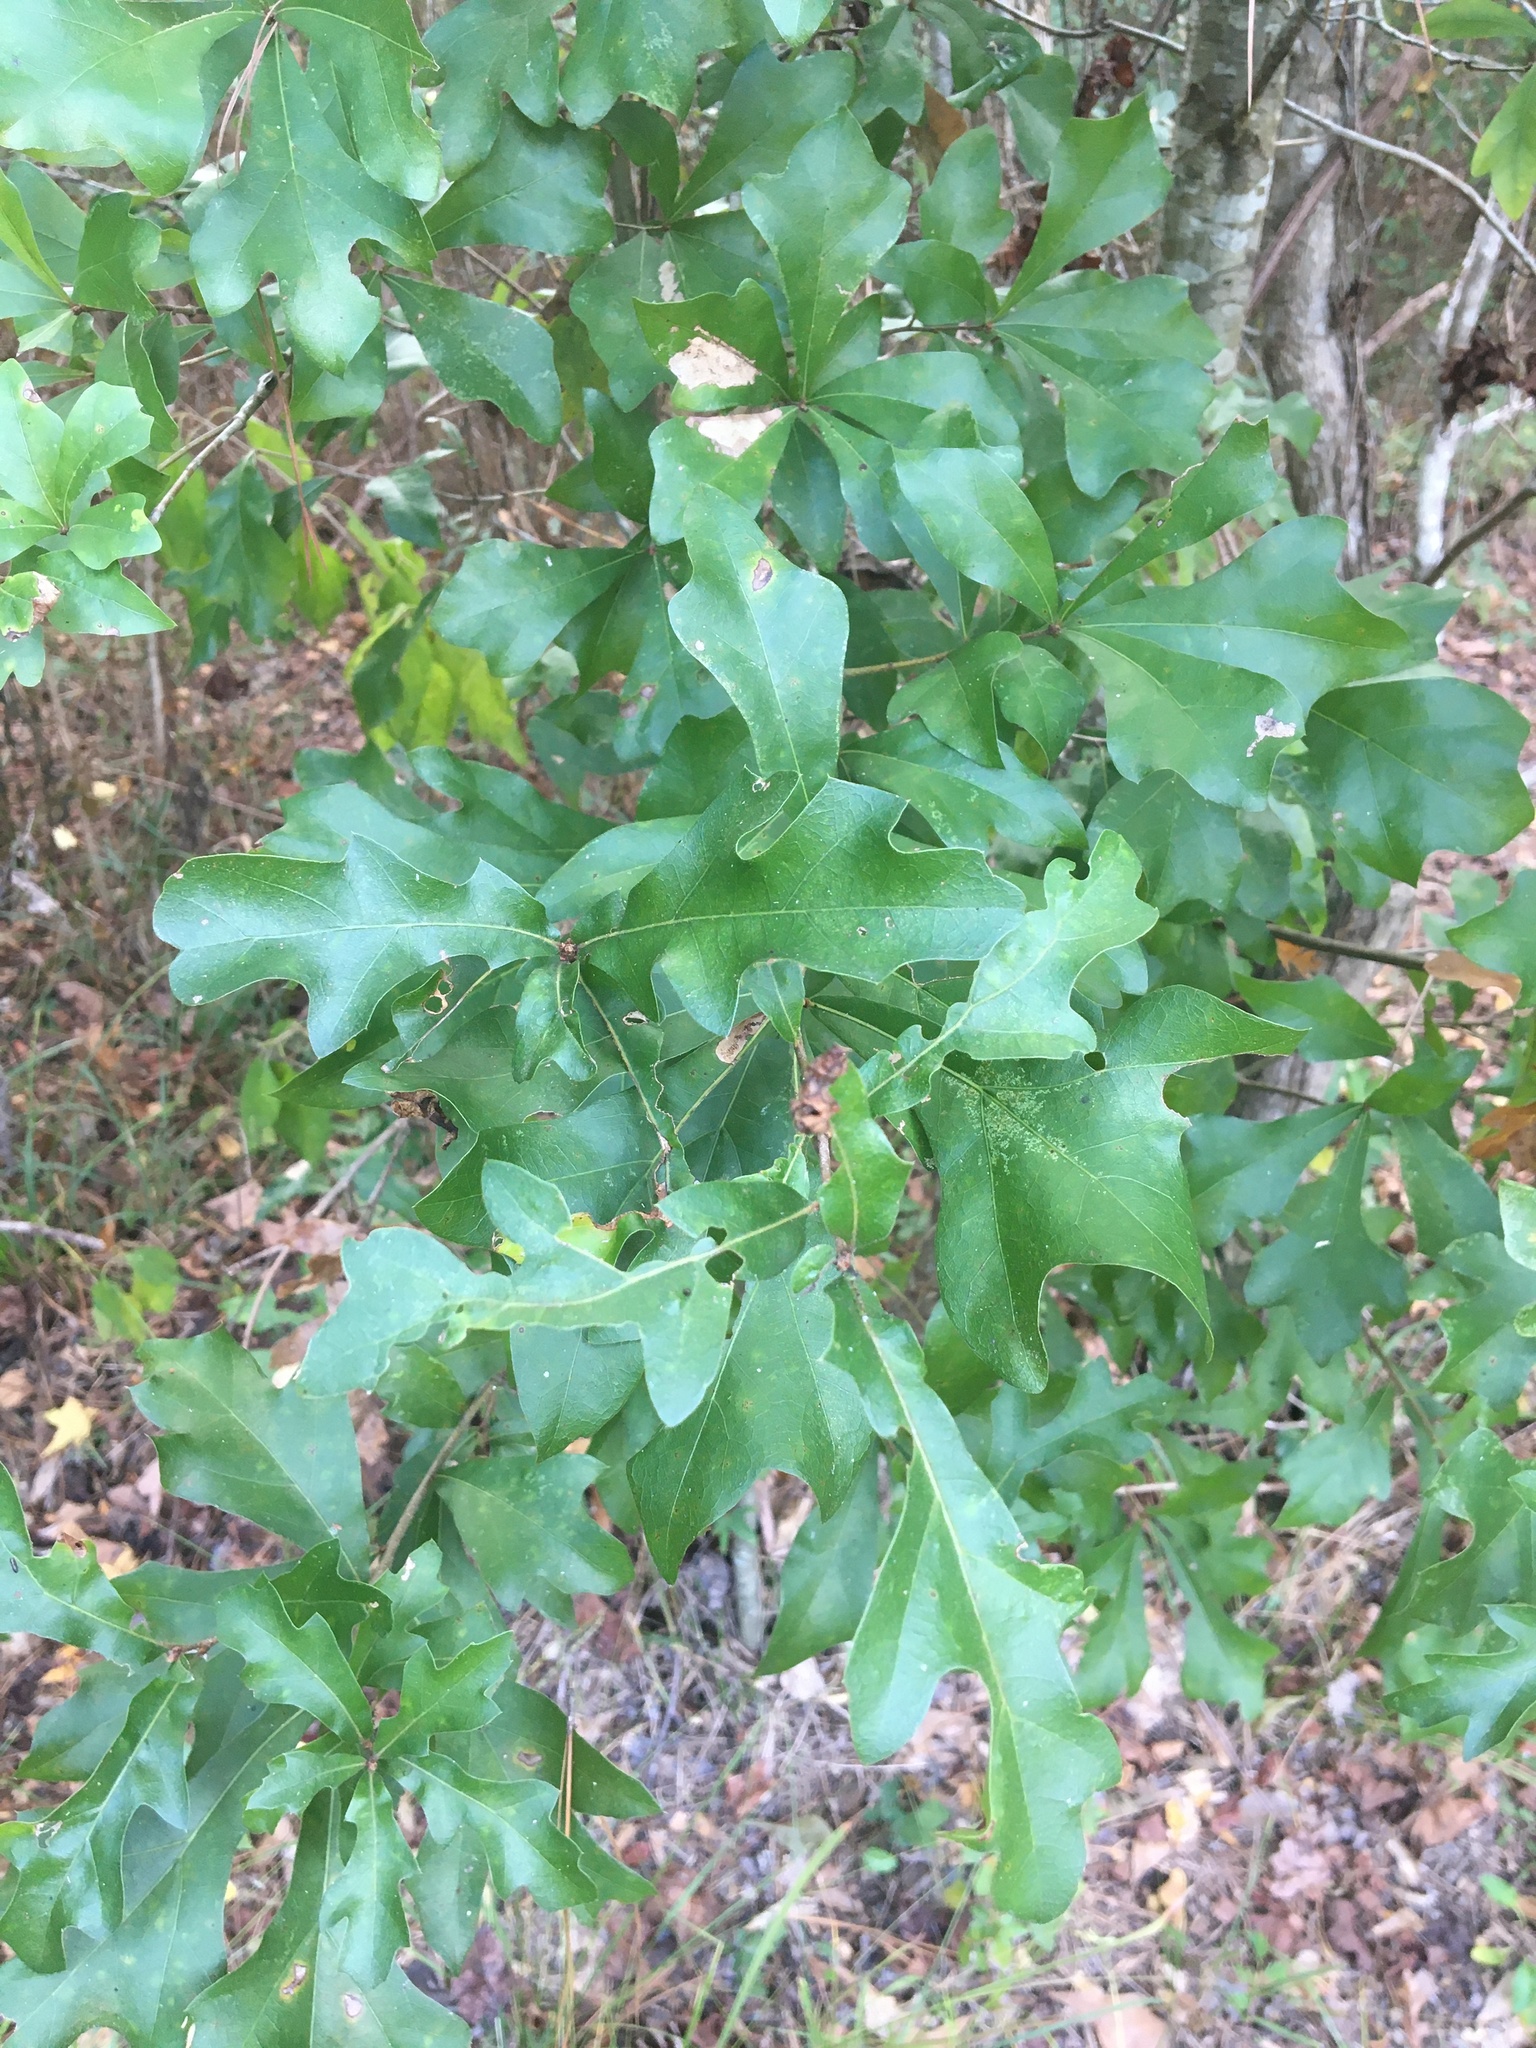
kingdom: Plantae
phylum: Tracheophyta
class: Magnoliopsida
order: Fagales
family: Fagaceae
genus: Quercus
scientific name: Quercus nigra
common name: Water oak
